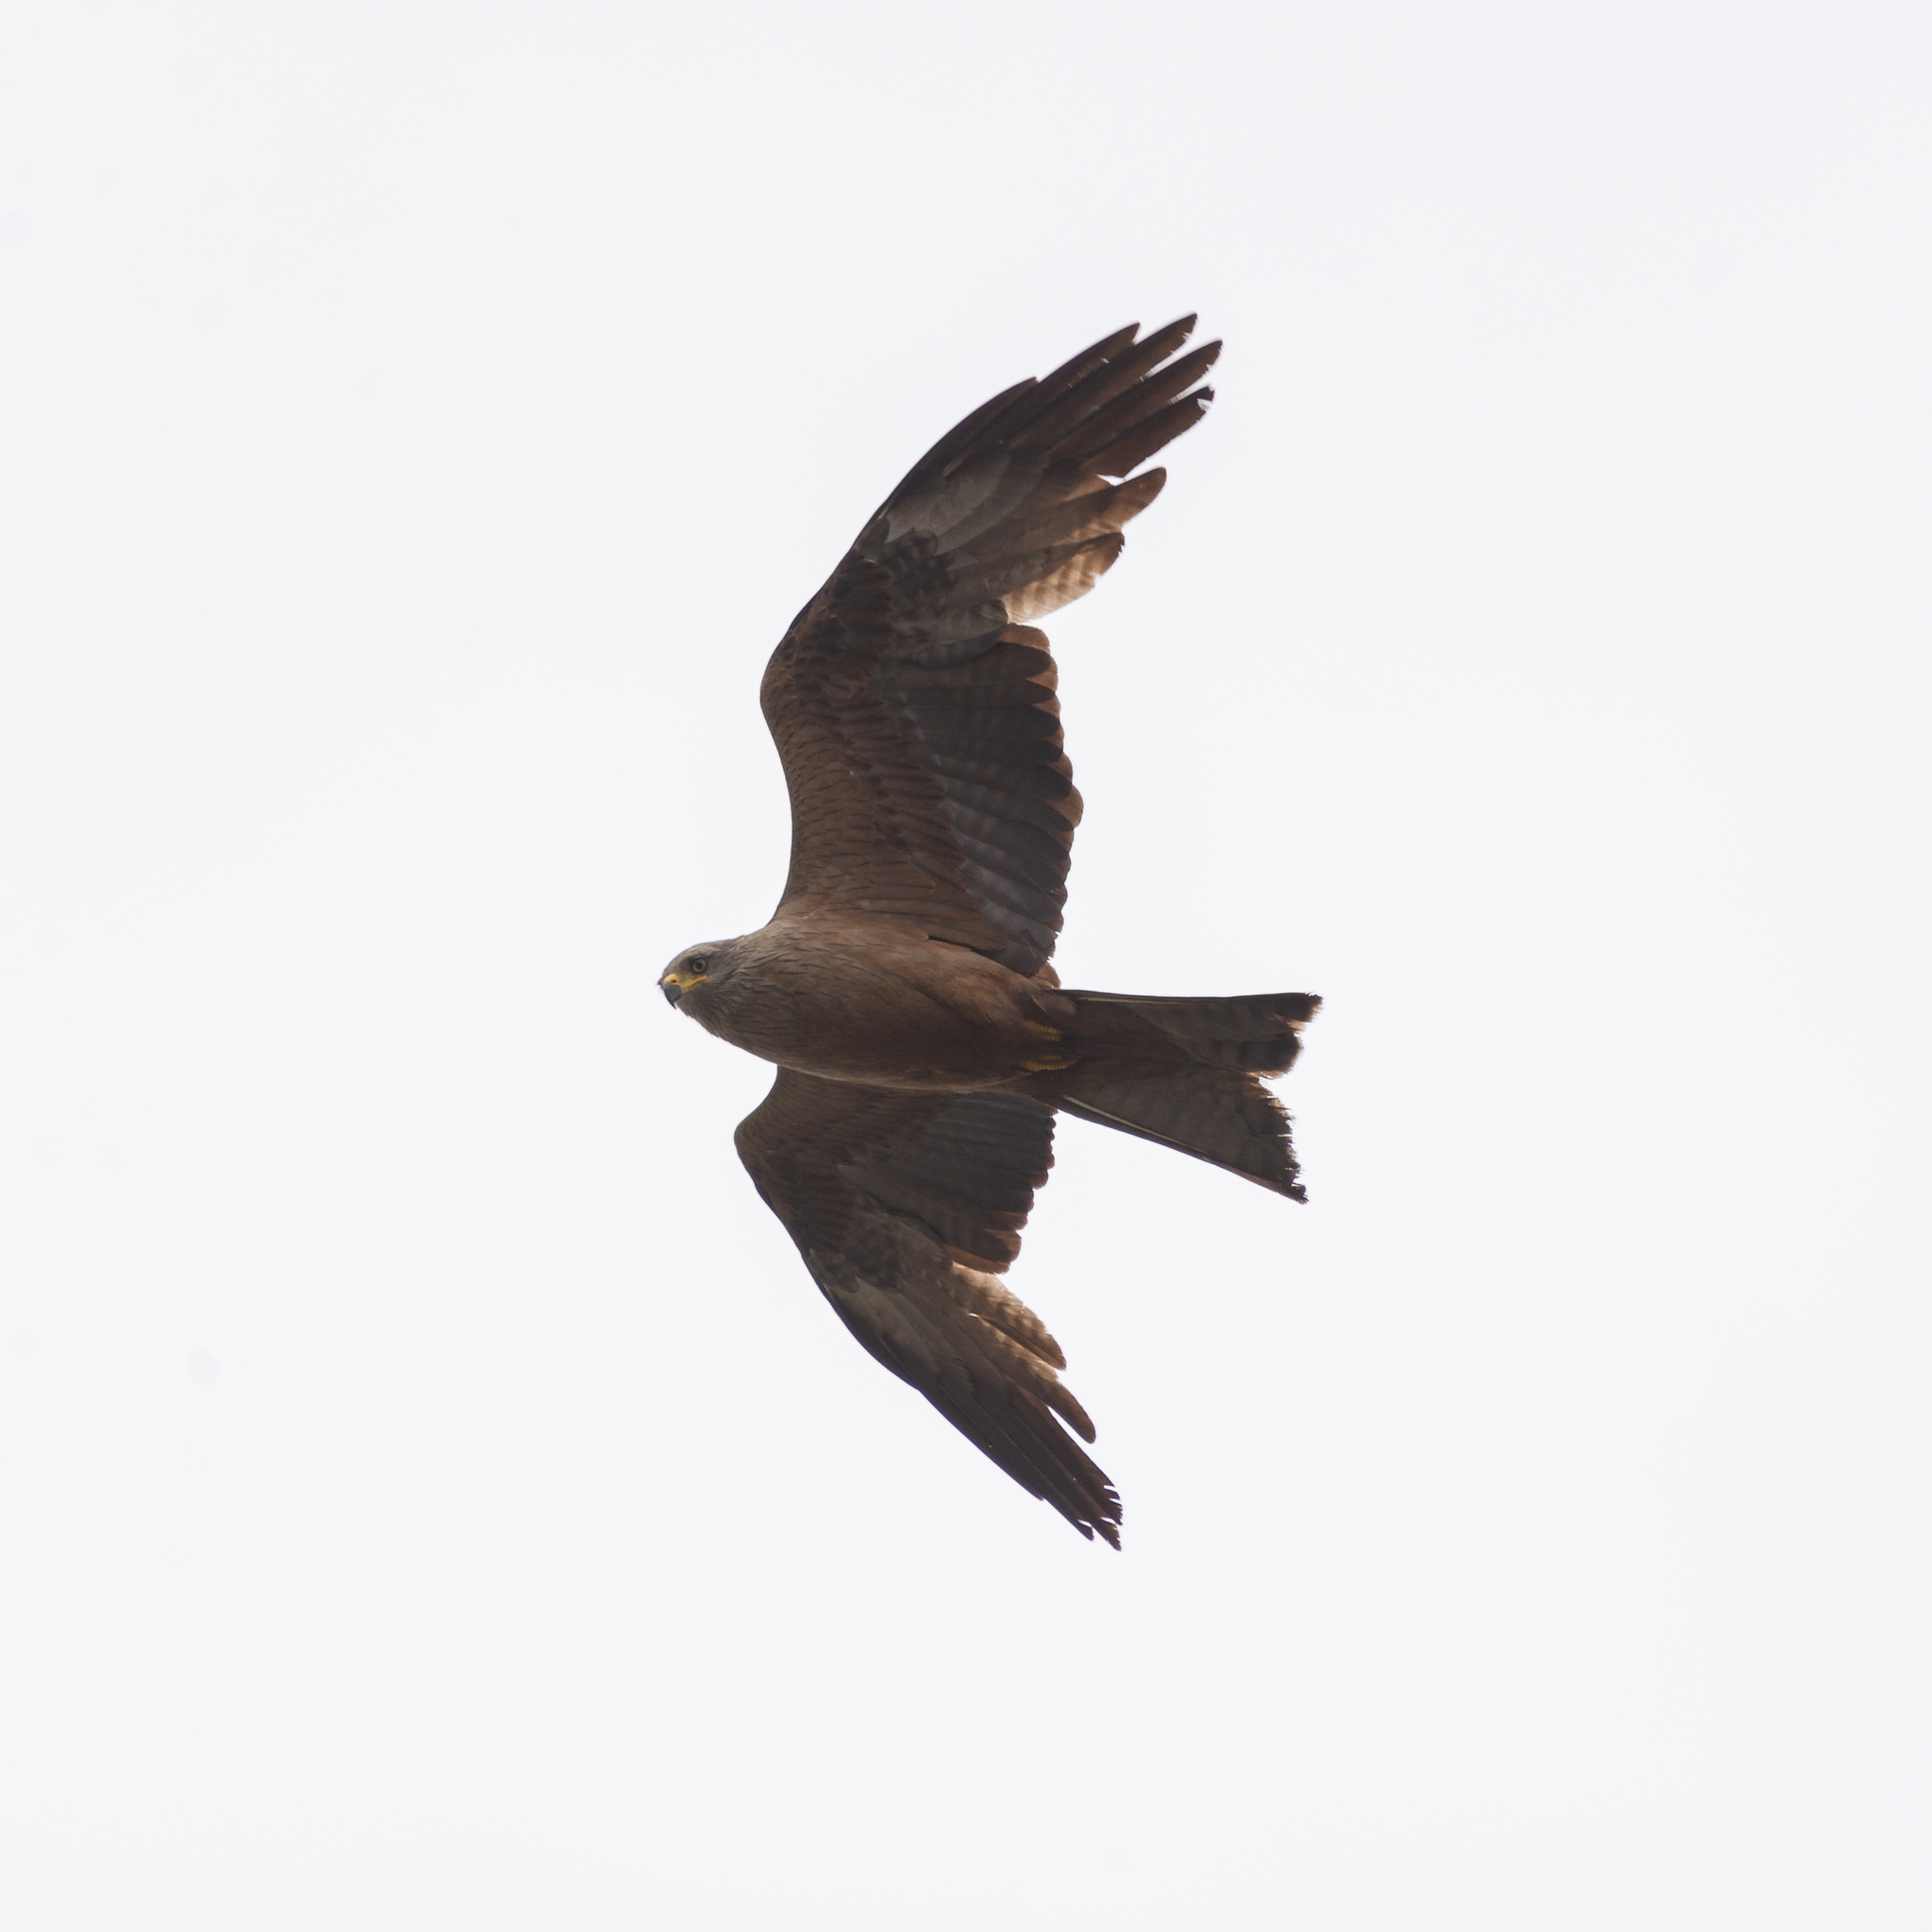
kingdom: Animalia
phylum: Chordata
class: Aves
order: Accipitriformes
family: Accipitridae
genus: Milvus
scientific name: Milvus migrans
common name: Black kite
